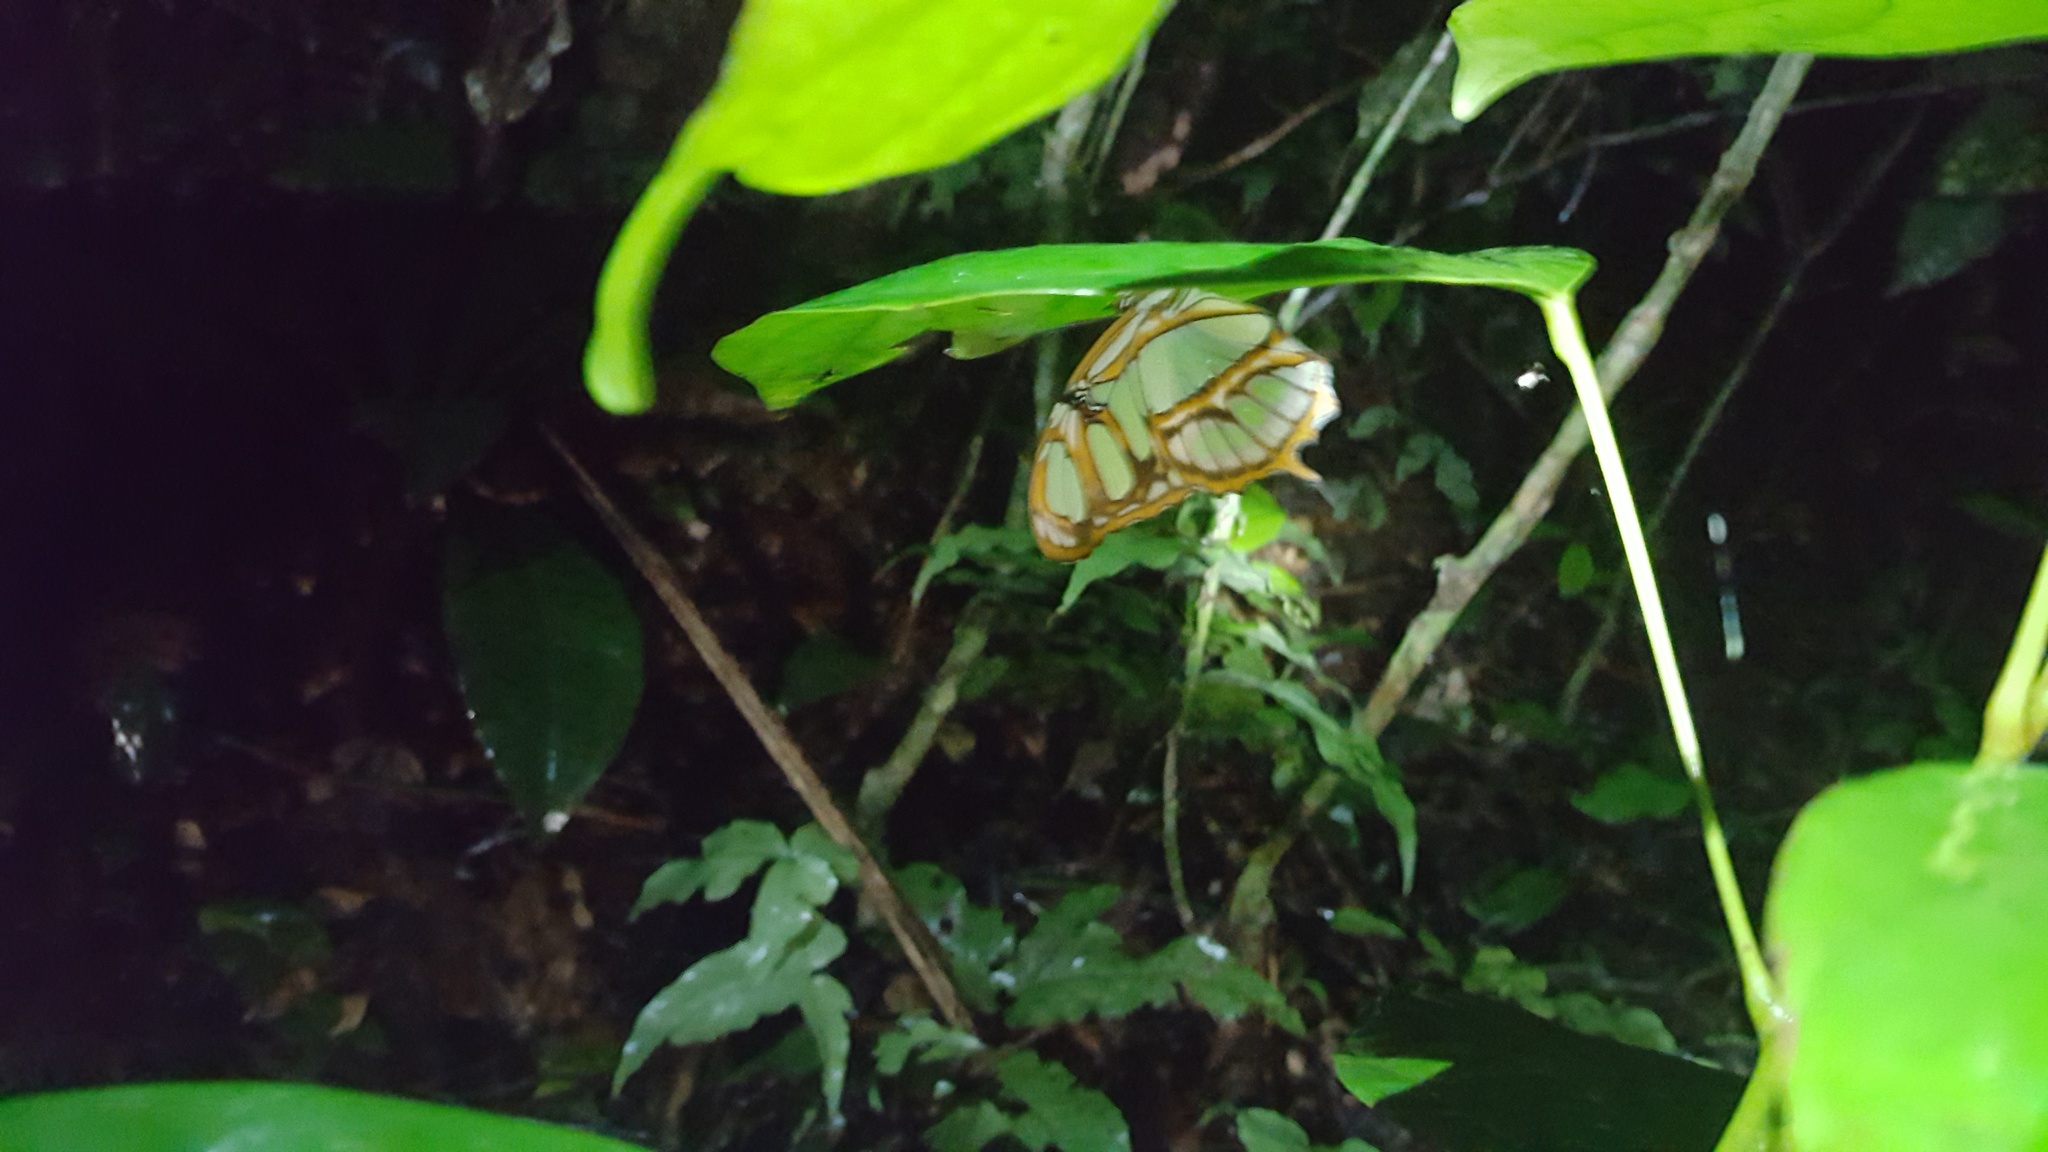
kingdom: Animalia
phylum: Arthropoda
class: Insecta
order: Lepidoptera
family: Nymphalidae
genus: Siproeta
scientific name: Siproeta stelenes
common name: Malachite
